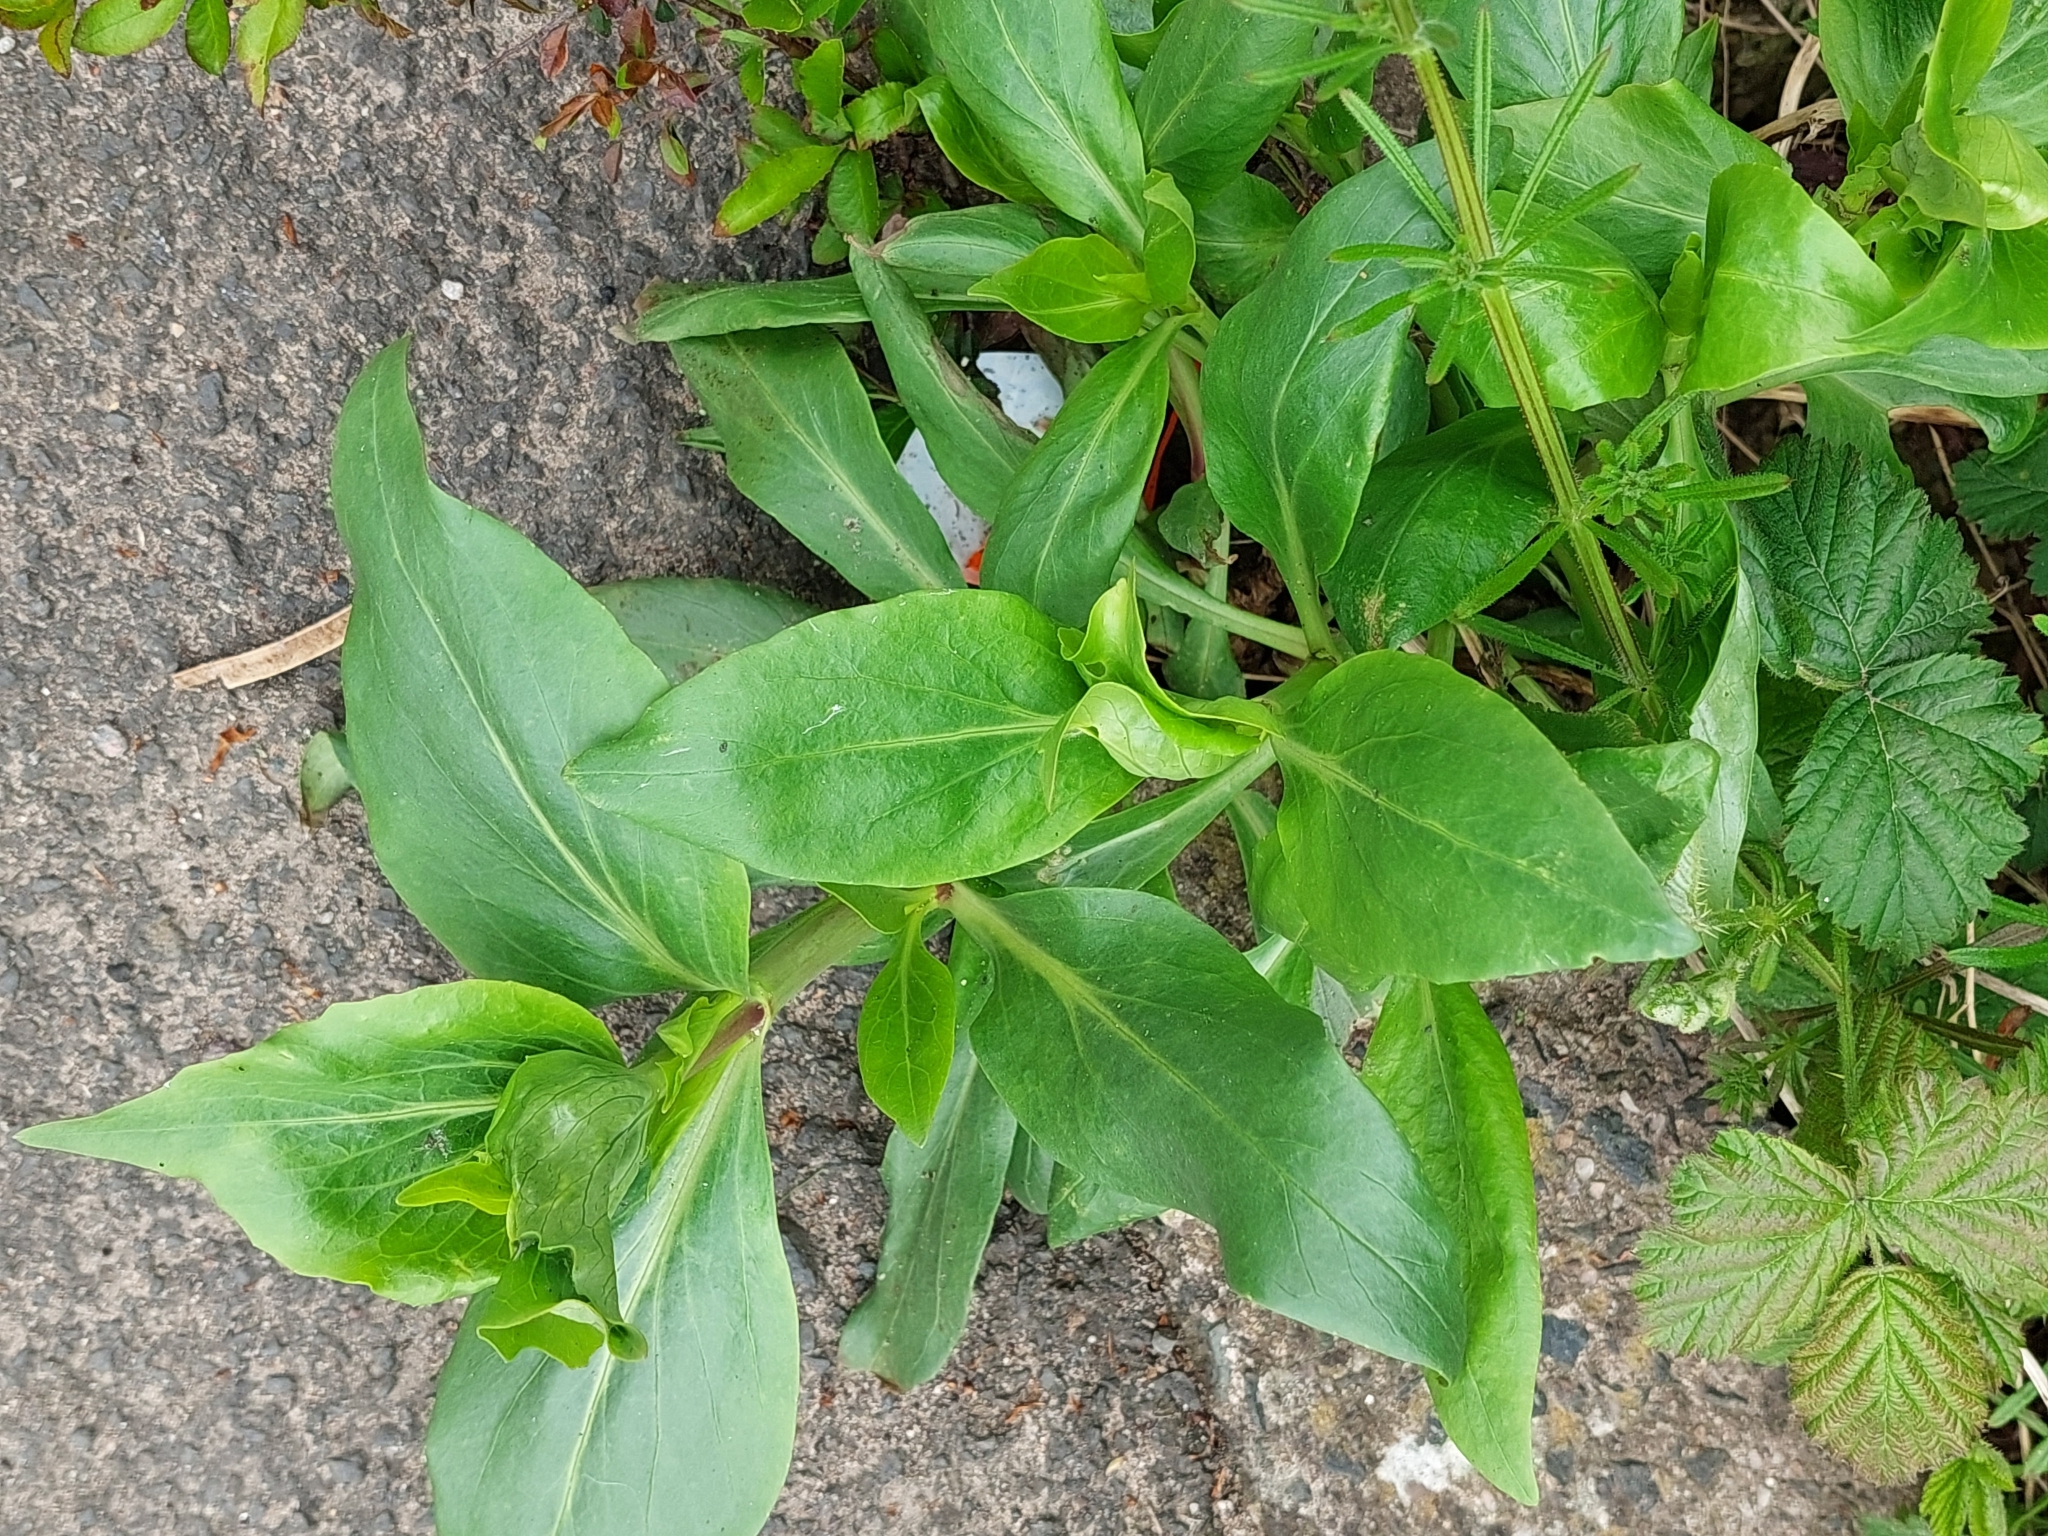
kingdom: Plantae
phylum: Tracheophyta
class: Magnoliopsida
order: Dipsacales
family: Caprifoliaceae
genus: Centranthus
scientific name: Centranthus ruber
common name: Red valerian
